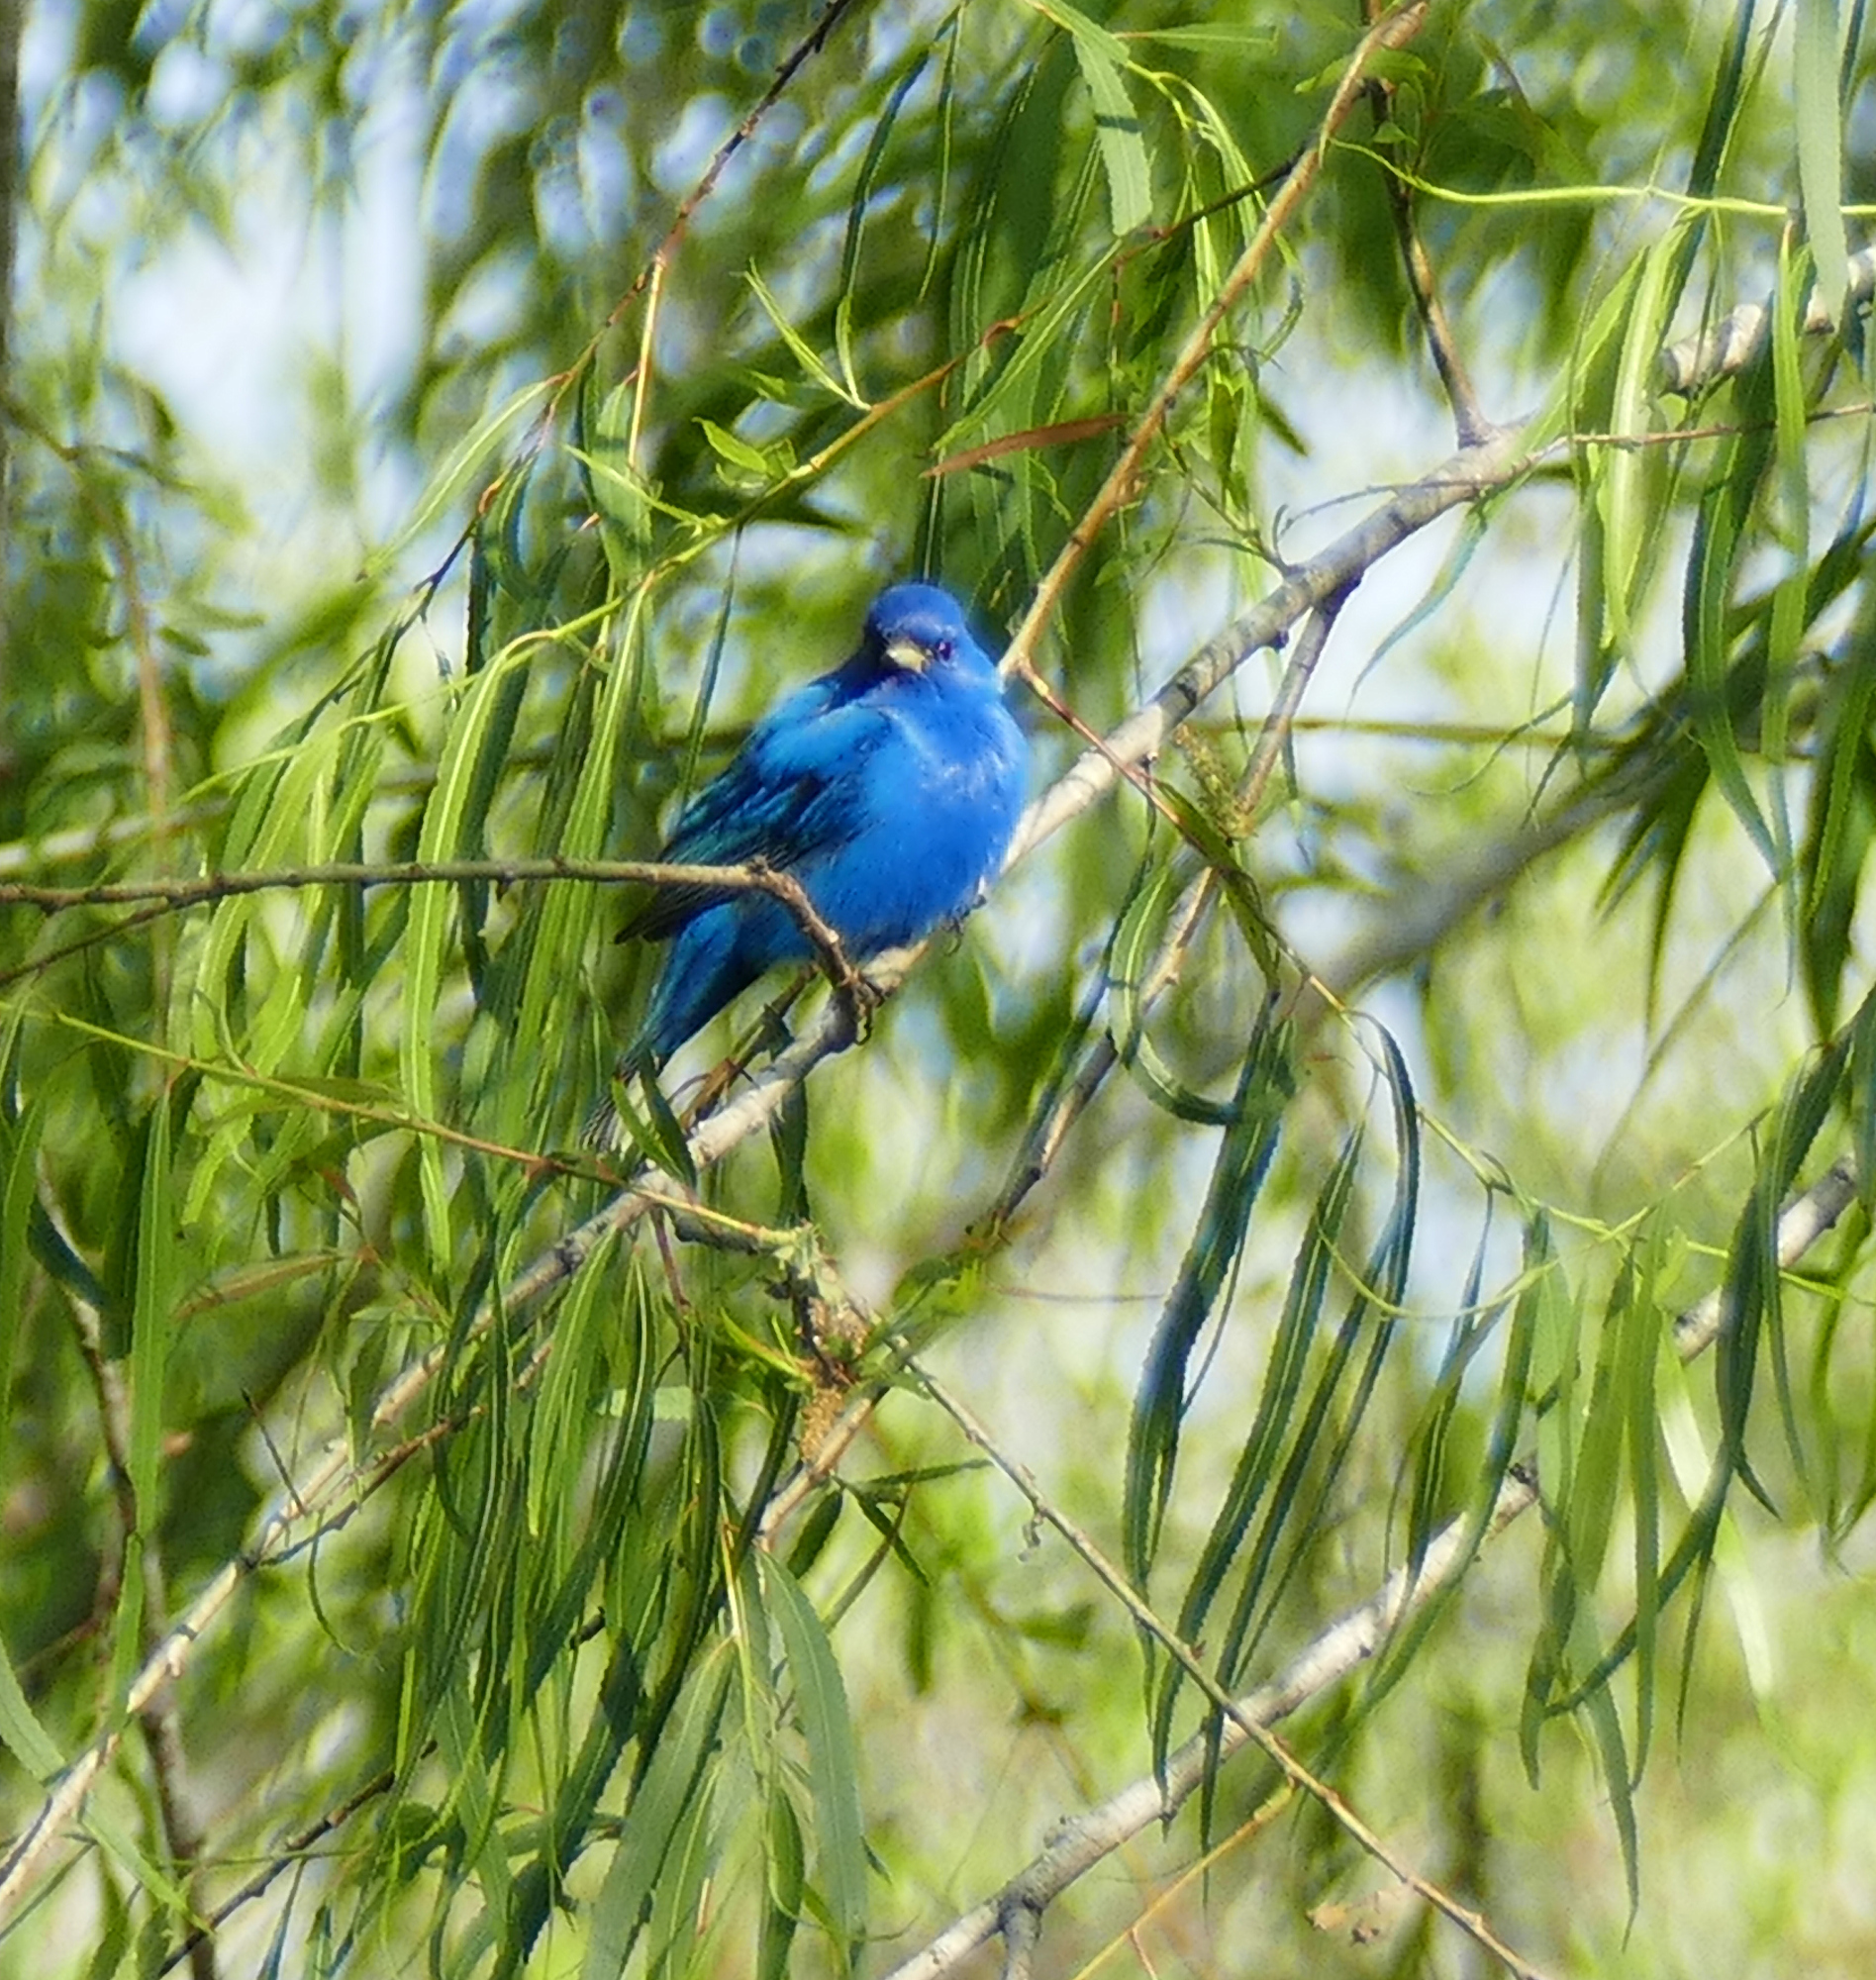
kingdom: Animalia
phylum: Chordata
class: Aves
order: Passeriformes
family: Cardinalidae
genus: Passerina
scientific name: Passerina cyanea
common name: Indigo bunting
